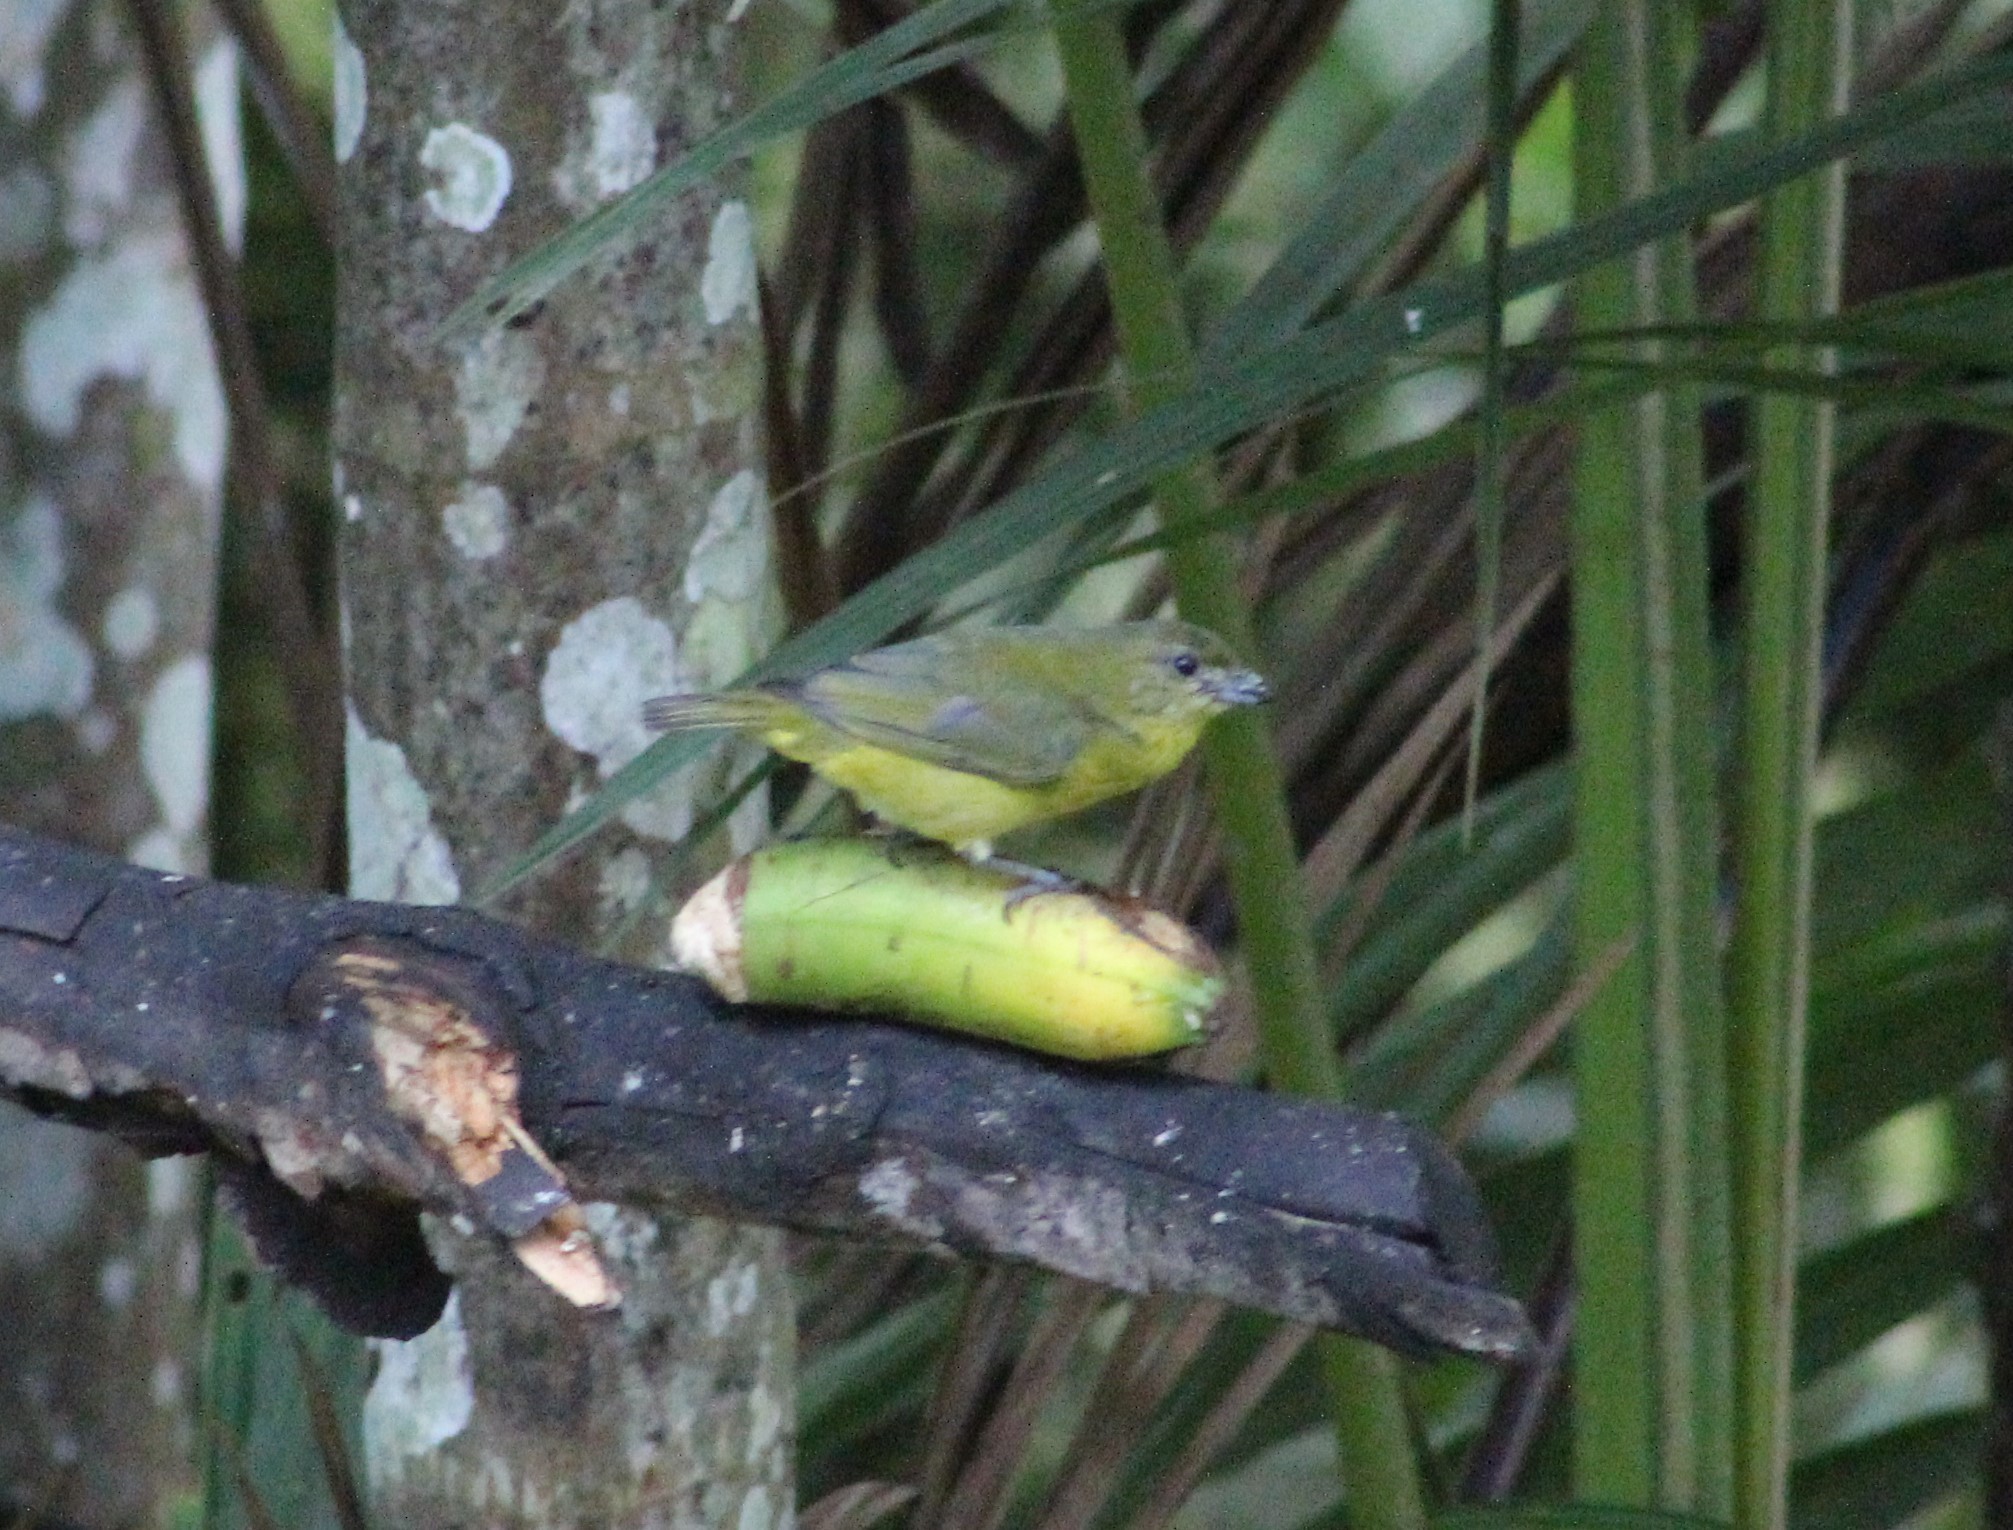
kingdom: Animalia
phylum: Chordata
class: Aves
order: Passeriformes
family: Fringillidae
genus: Euphonia
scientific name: Euphonia laniirostris
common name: Thick-billed euphonia
